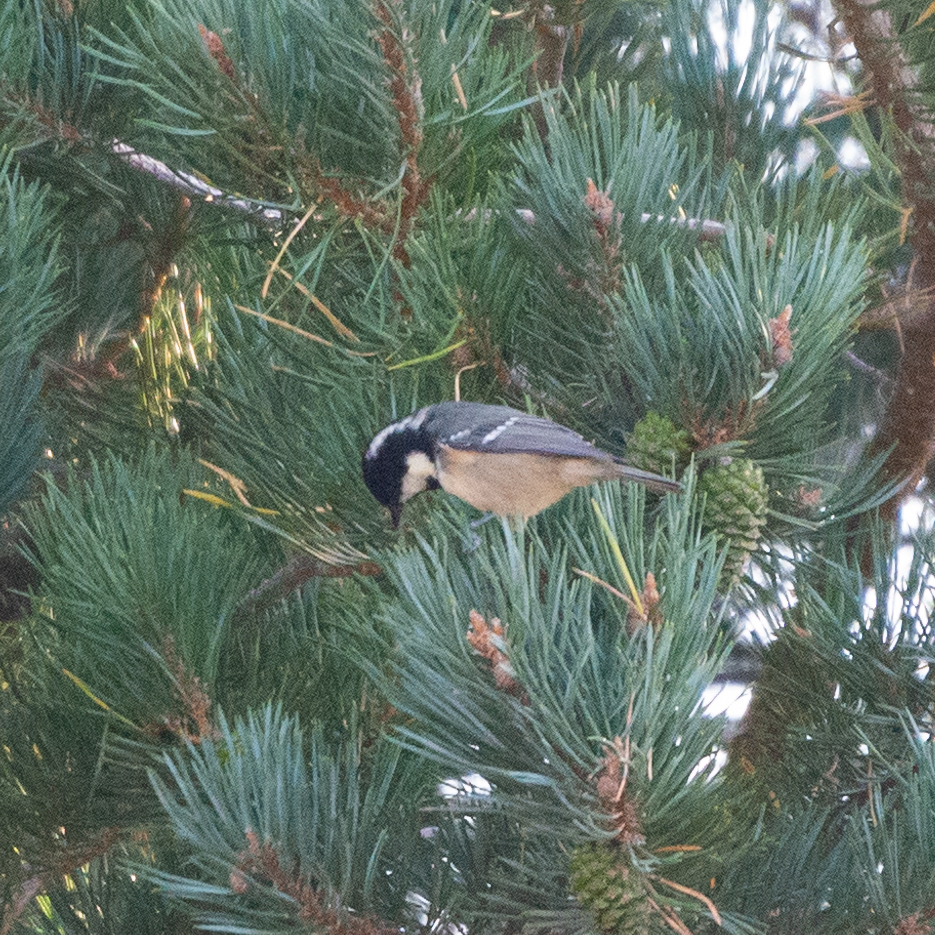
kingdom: Animalia
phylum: Chordata
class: Aves
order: Passeriformes
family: Paridae
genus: Periparus
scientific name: Periparus ater
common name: Coal tit
